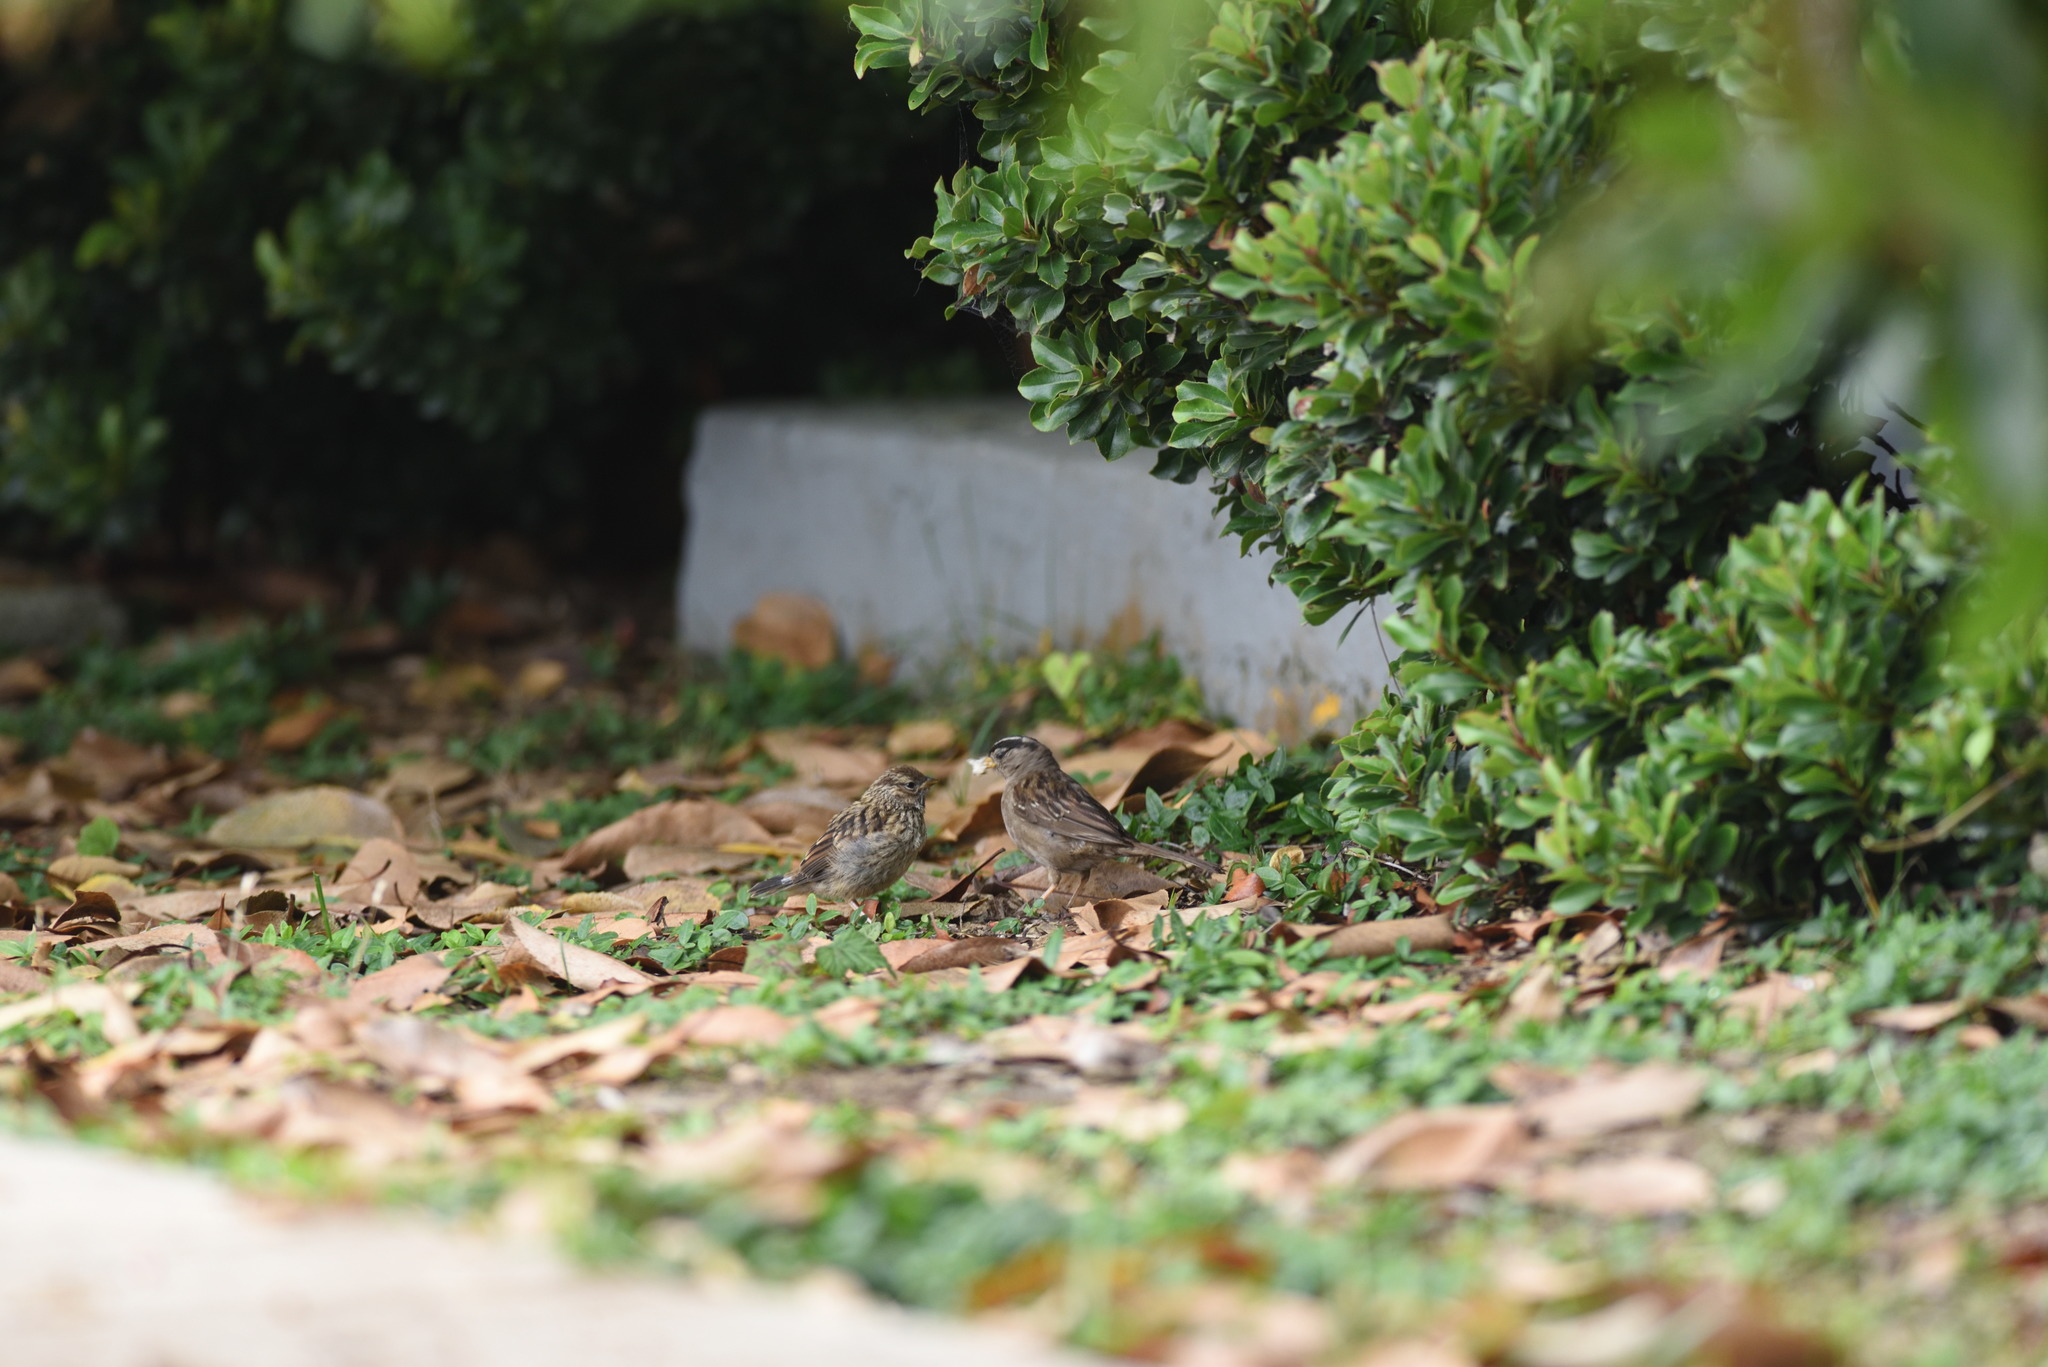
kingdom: Animalia
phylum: Chordata
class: Aves
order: Passeriformes
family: Passerellidae
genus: Zonotrichia
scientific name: Zonotrichia leucophrys
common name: White-crowned sparrow
